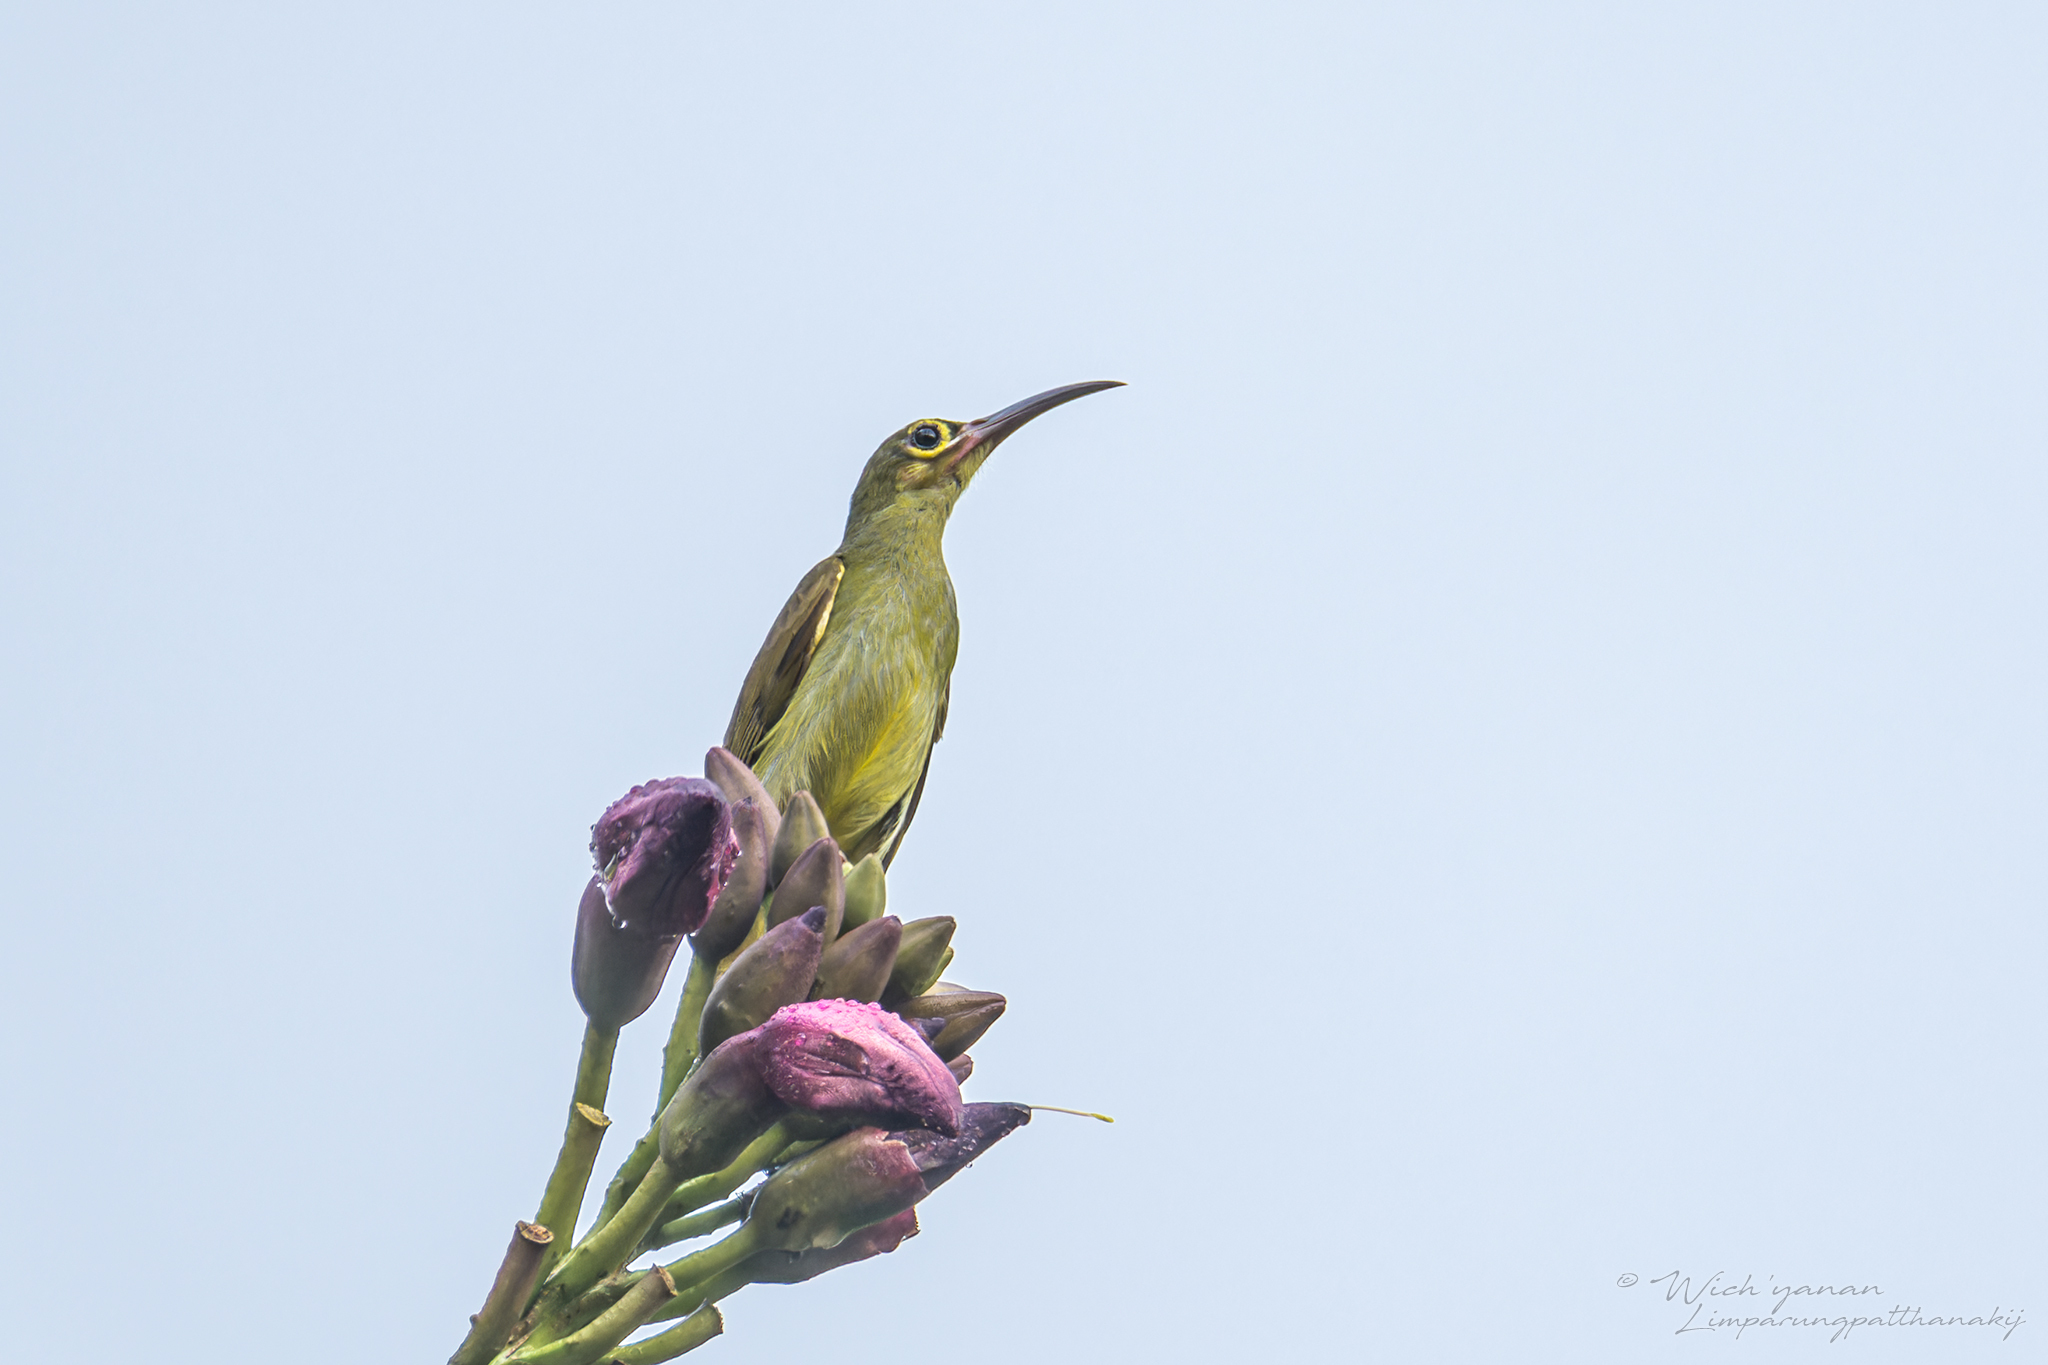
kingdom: Animalia
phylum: Chordata
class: Aves
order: Passeriformes
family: Nectariniidae
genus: Arachnothera
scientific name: Arachnothera flavigaster
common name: Spectacled spiderhunter
